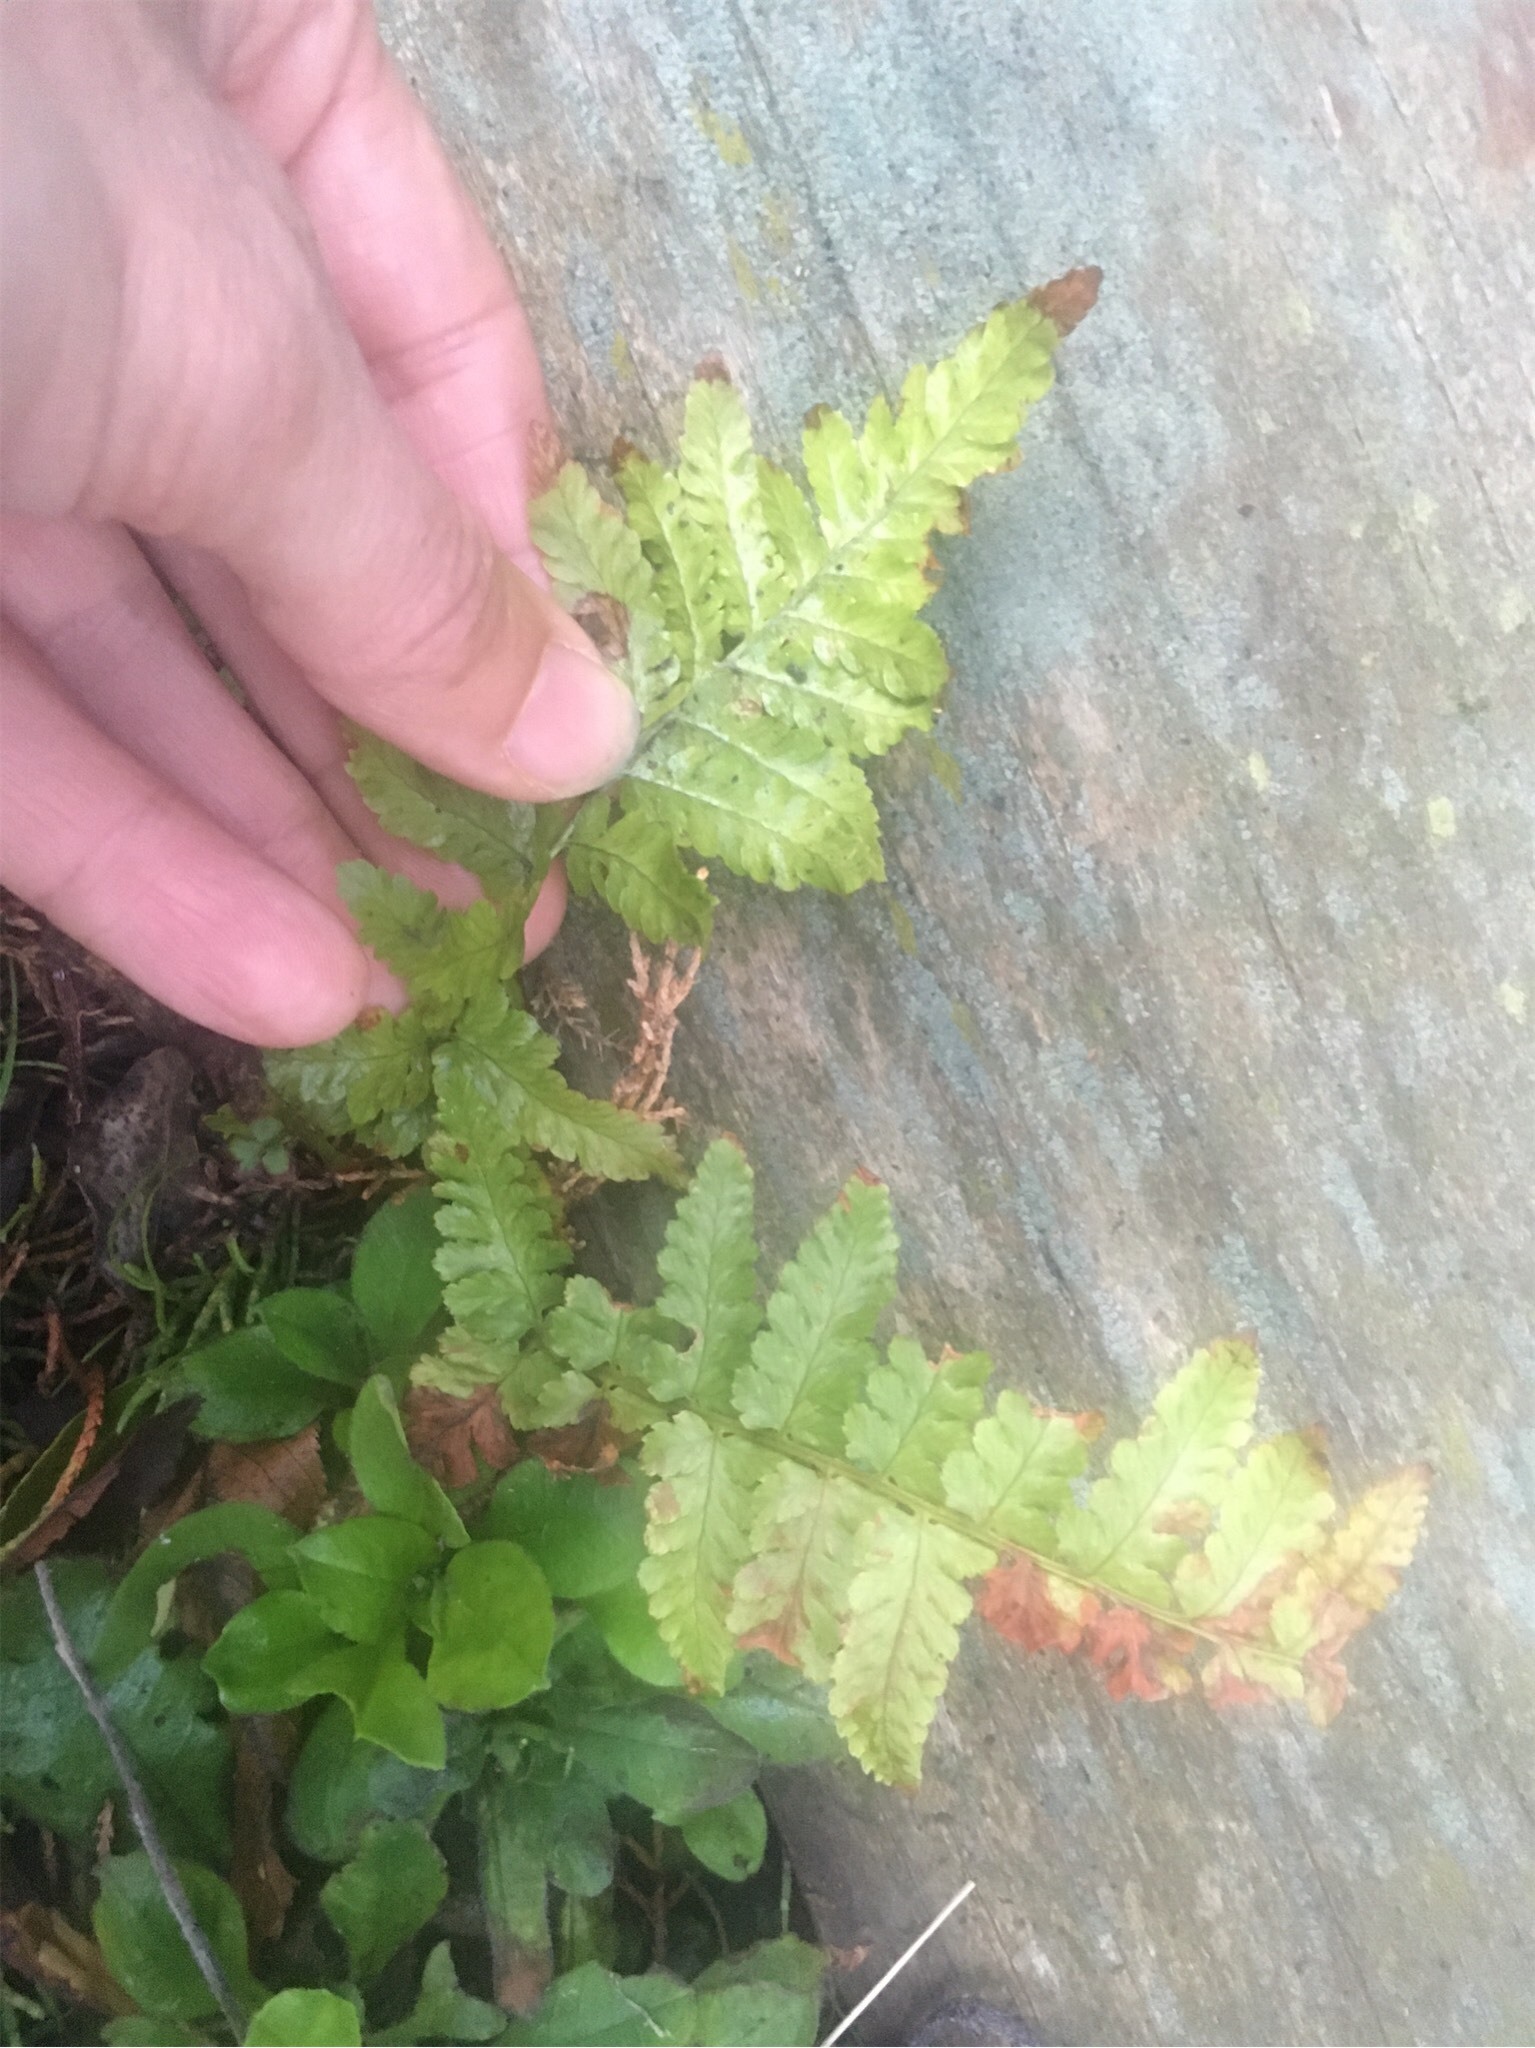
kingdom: Plantae
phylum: Tracheophyta
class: Polypodiopsida
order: Polypodiales
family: Dryopteridaceae
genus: Dryopteris
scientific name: Dryopteris filix-mas
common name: Male fern
